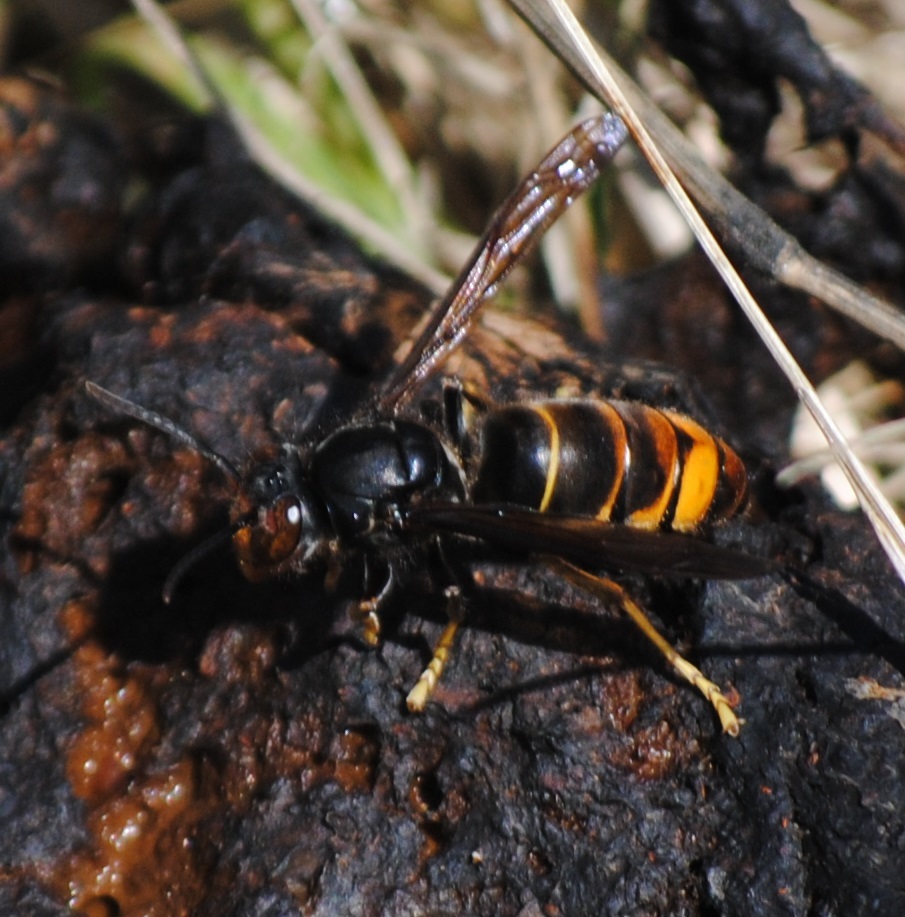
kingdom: Animalia
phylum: Arthropoda
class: Insecta
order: Hymenoptera
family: Vespidae
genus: Vespa
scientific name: Vespa velutina
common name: Asian hornet
